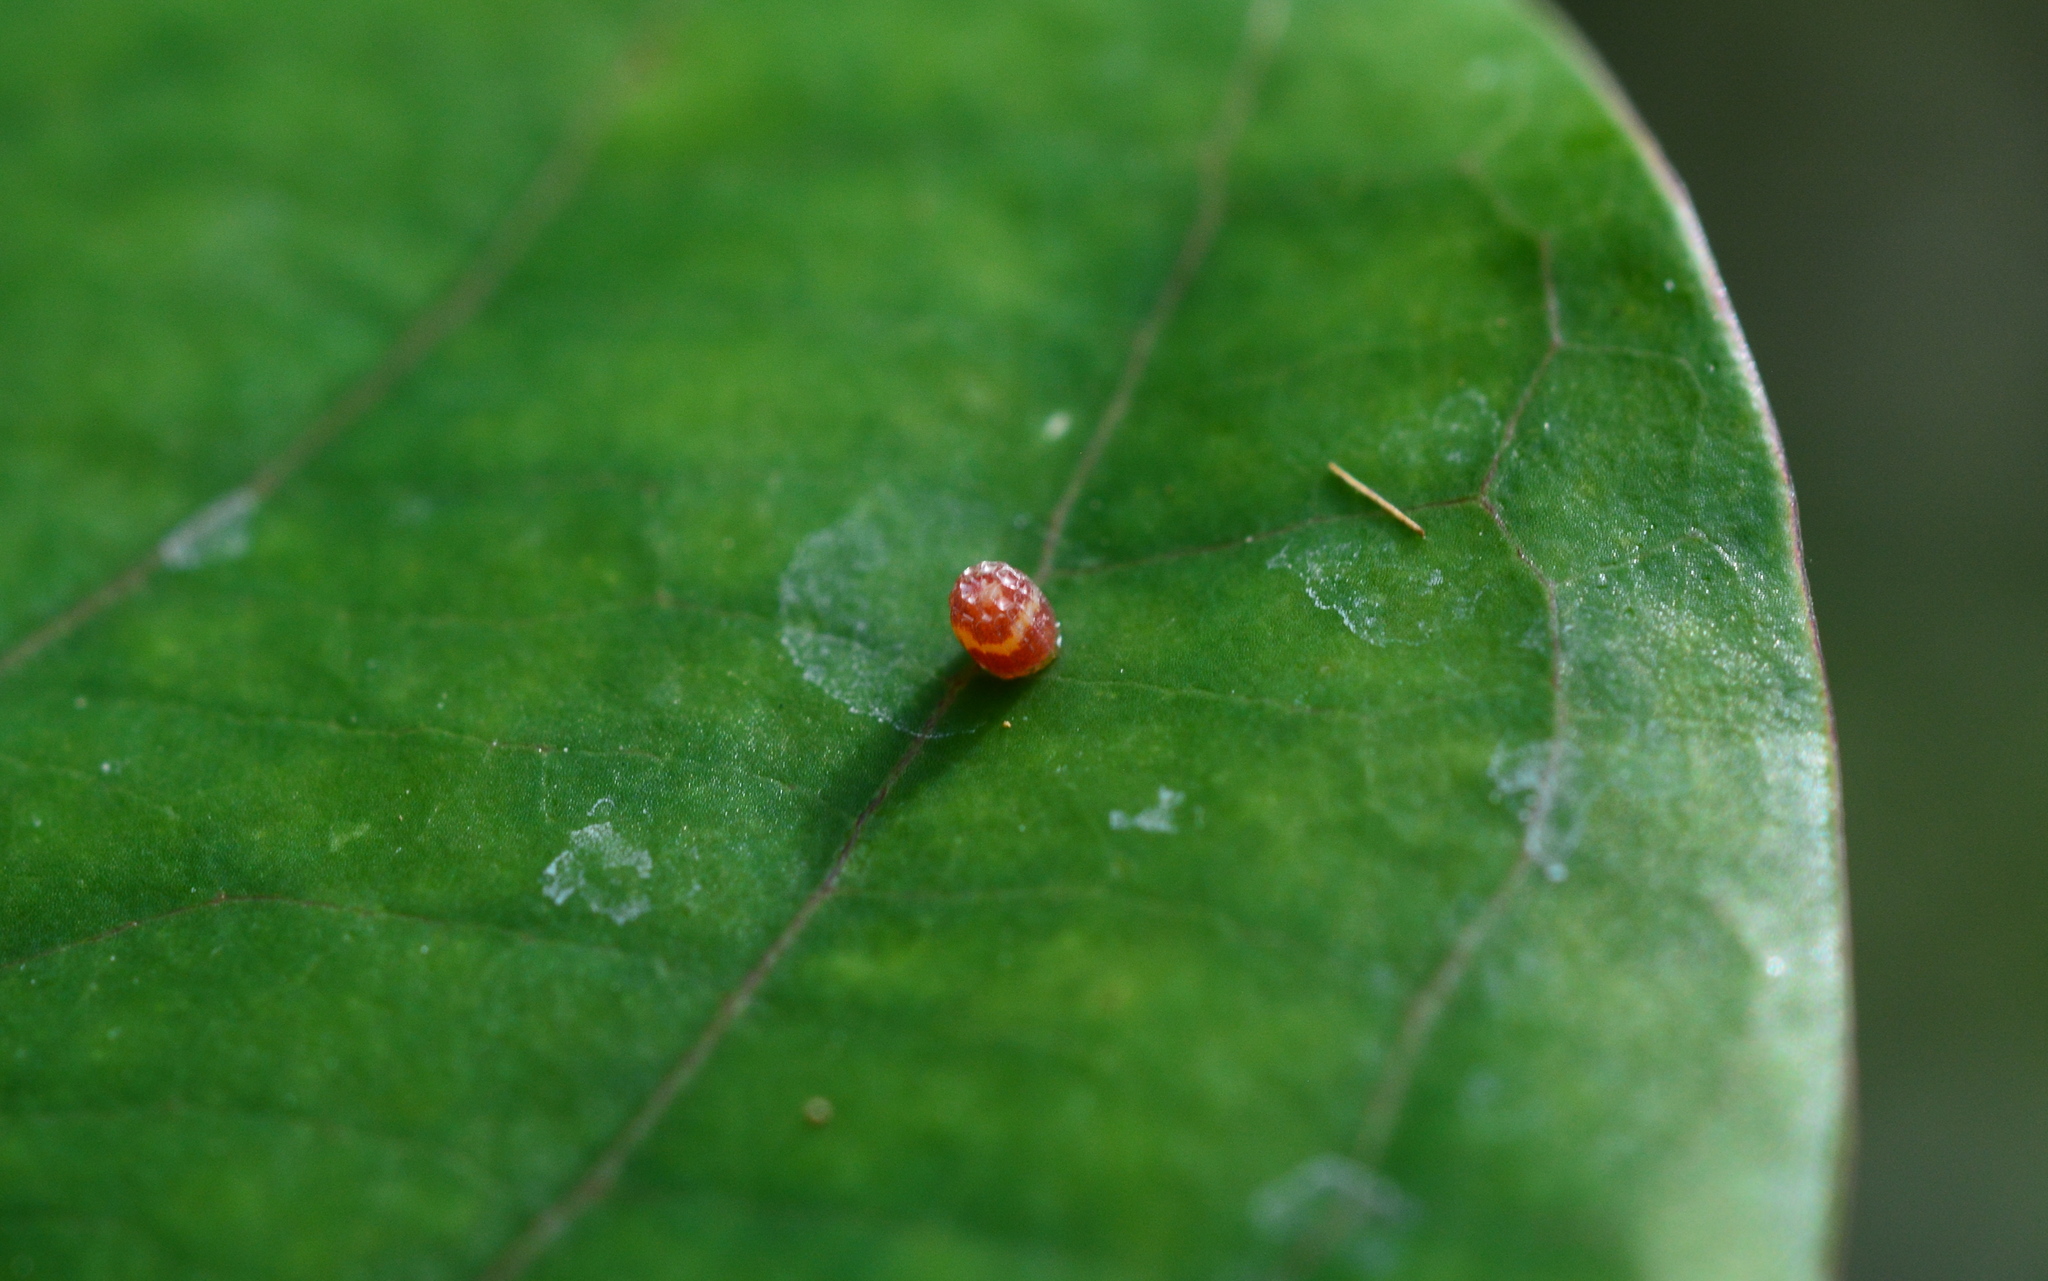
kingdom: Animalia
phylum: Arthropoda
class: Insecta
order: Lepidoptera
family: Nymphalidae
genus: Dione
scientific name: Dione vanillae
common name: Gulf fritillary
